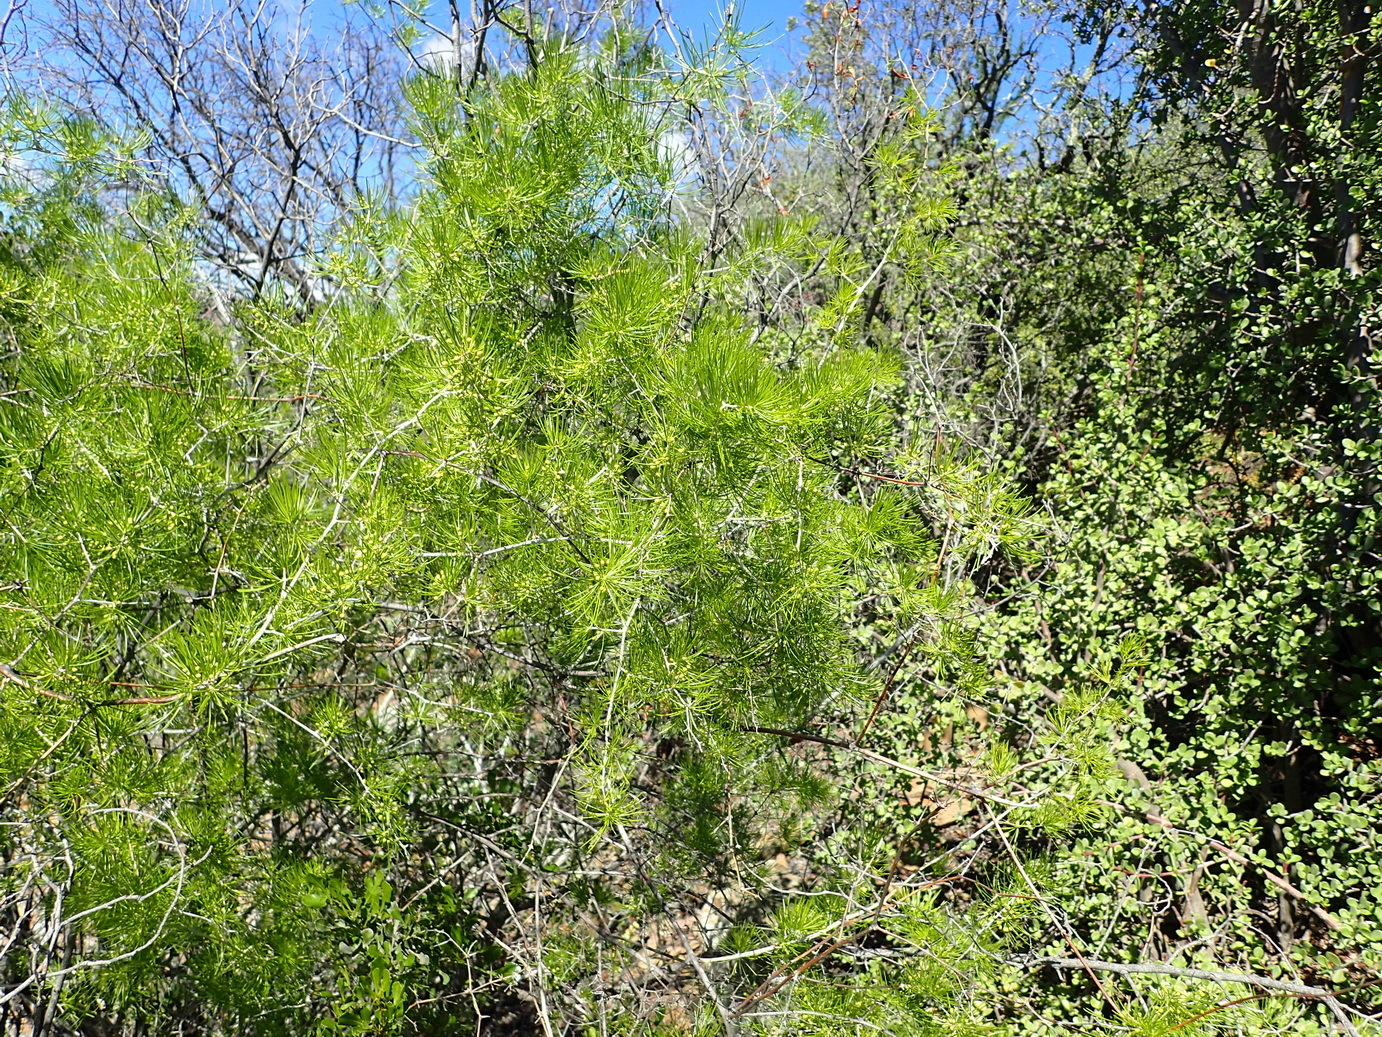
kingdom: Plantae
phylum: Tracheophyta
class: Liliopsida
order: Asparagales
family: Asparagaceae
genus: Asparagus
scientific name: Asparagus retrofractus
